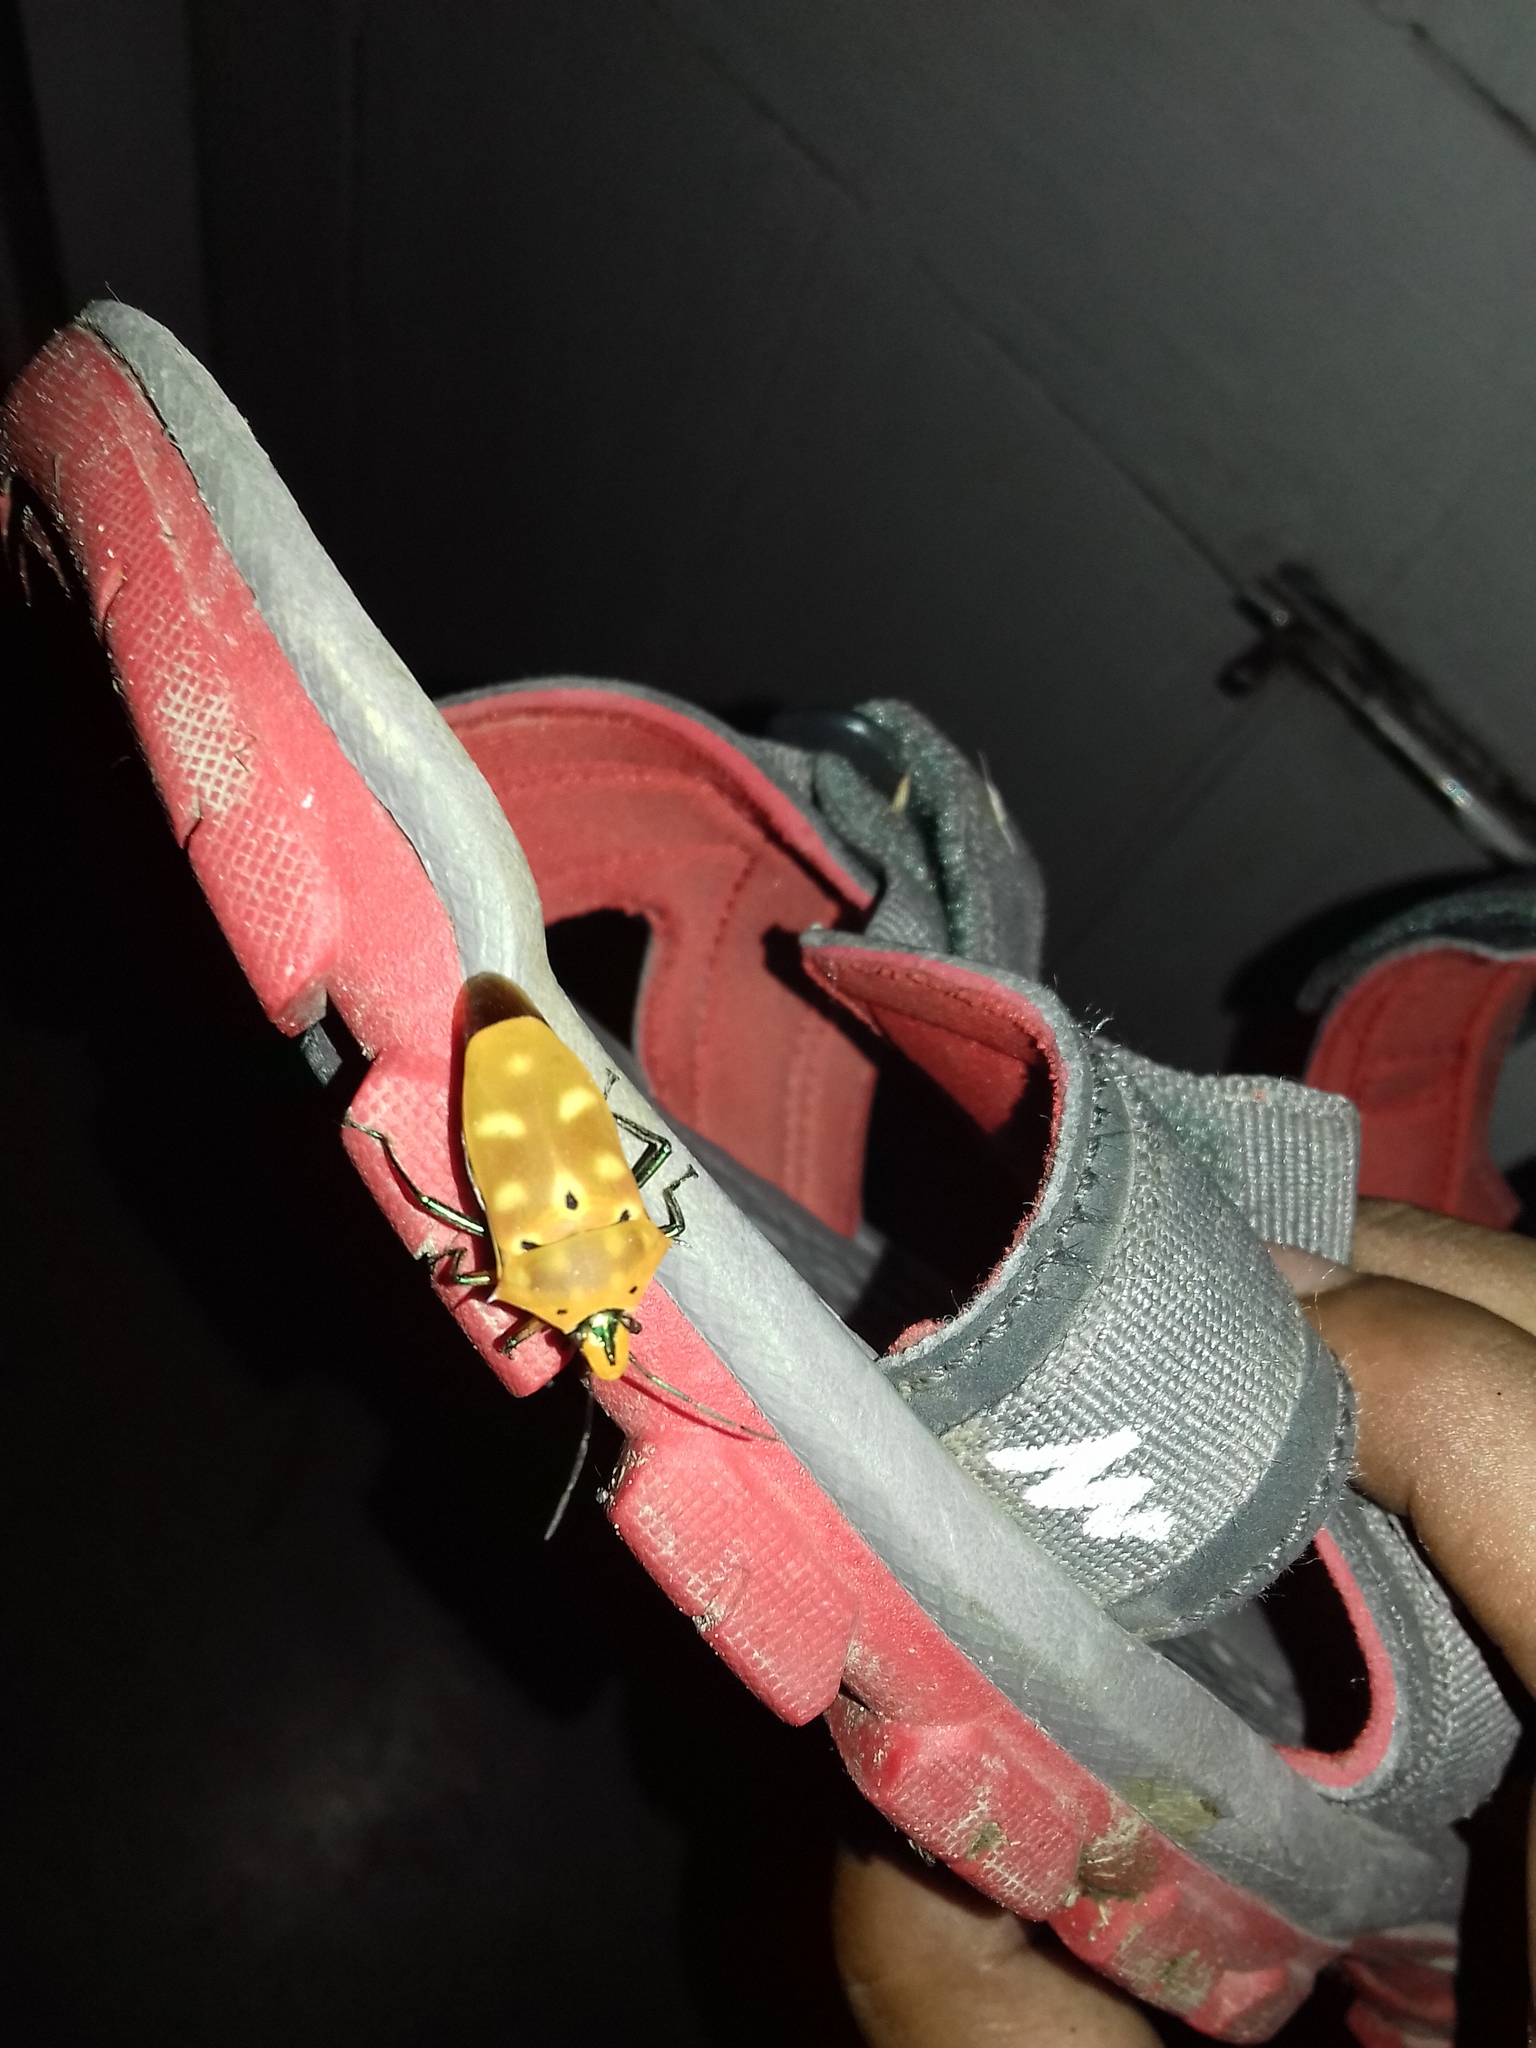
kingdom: Animalia
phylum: Arthropoda
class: Insecta
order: Hemiptera
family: Scutelleridae
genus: Cantao
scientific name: Cantao ocellatus
